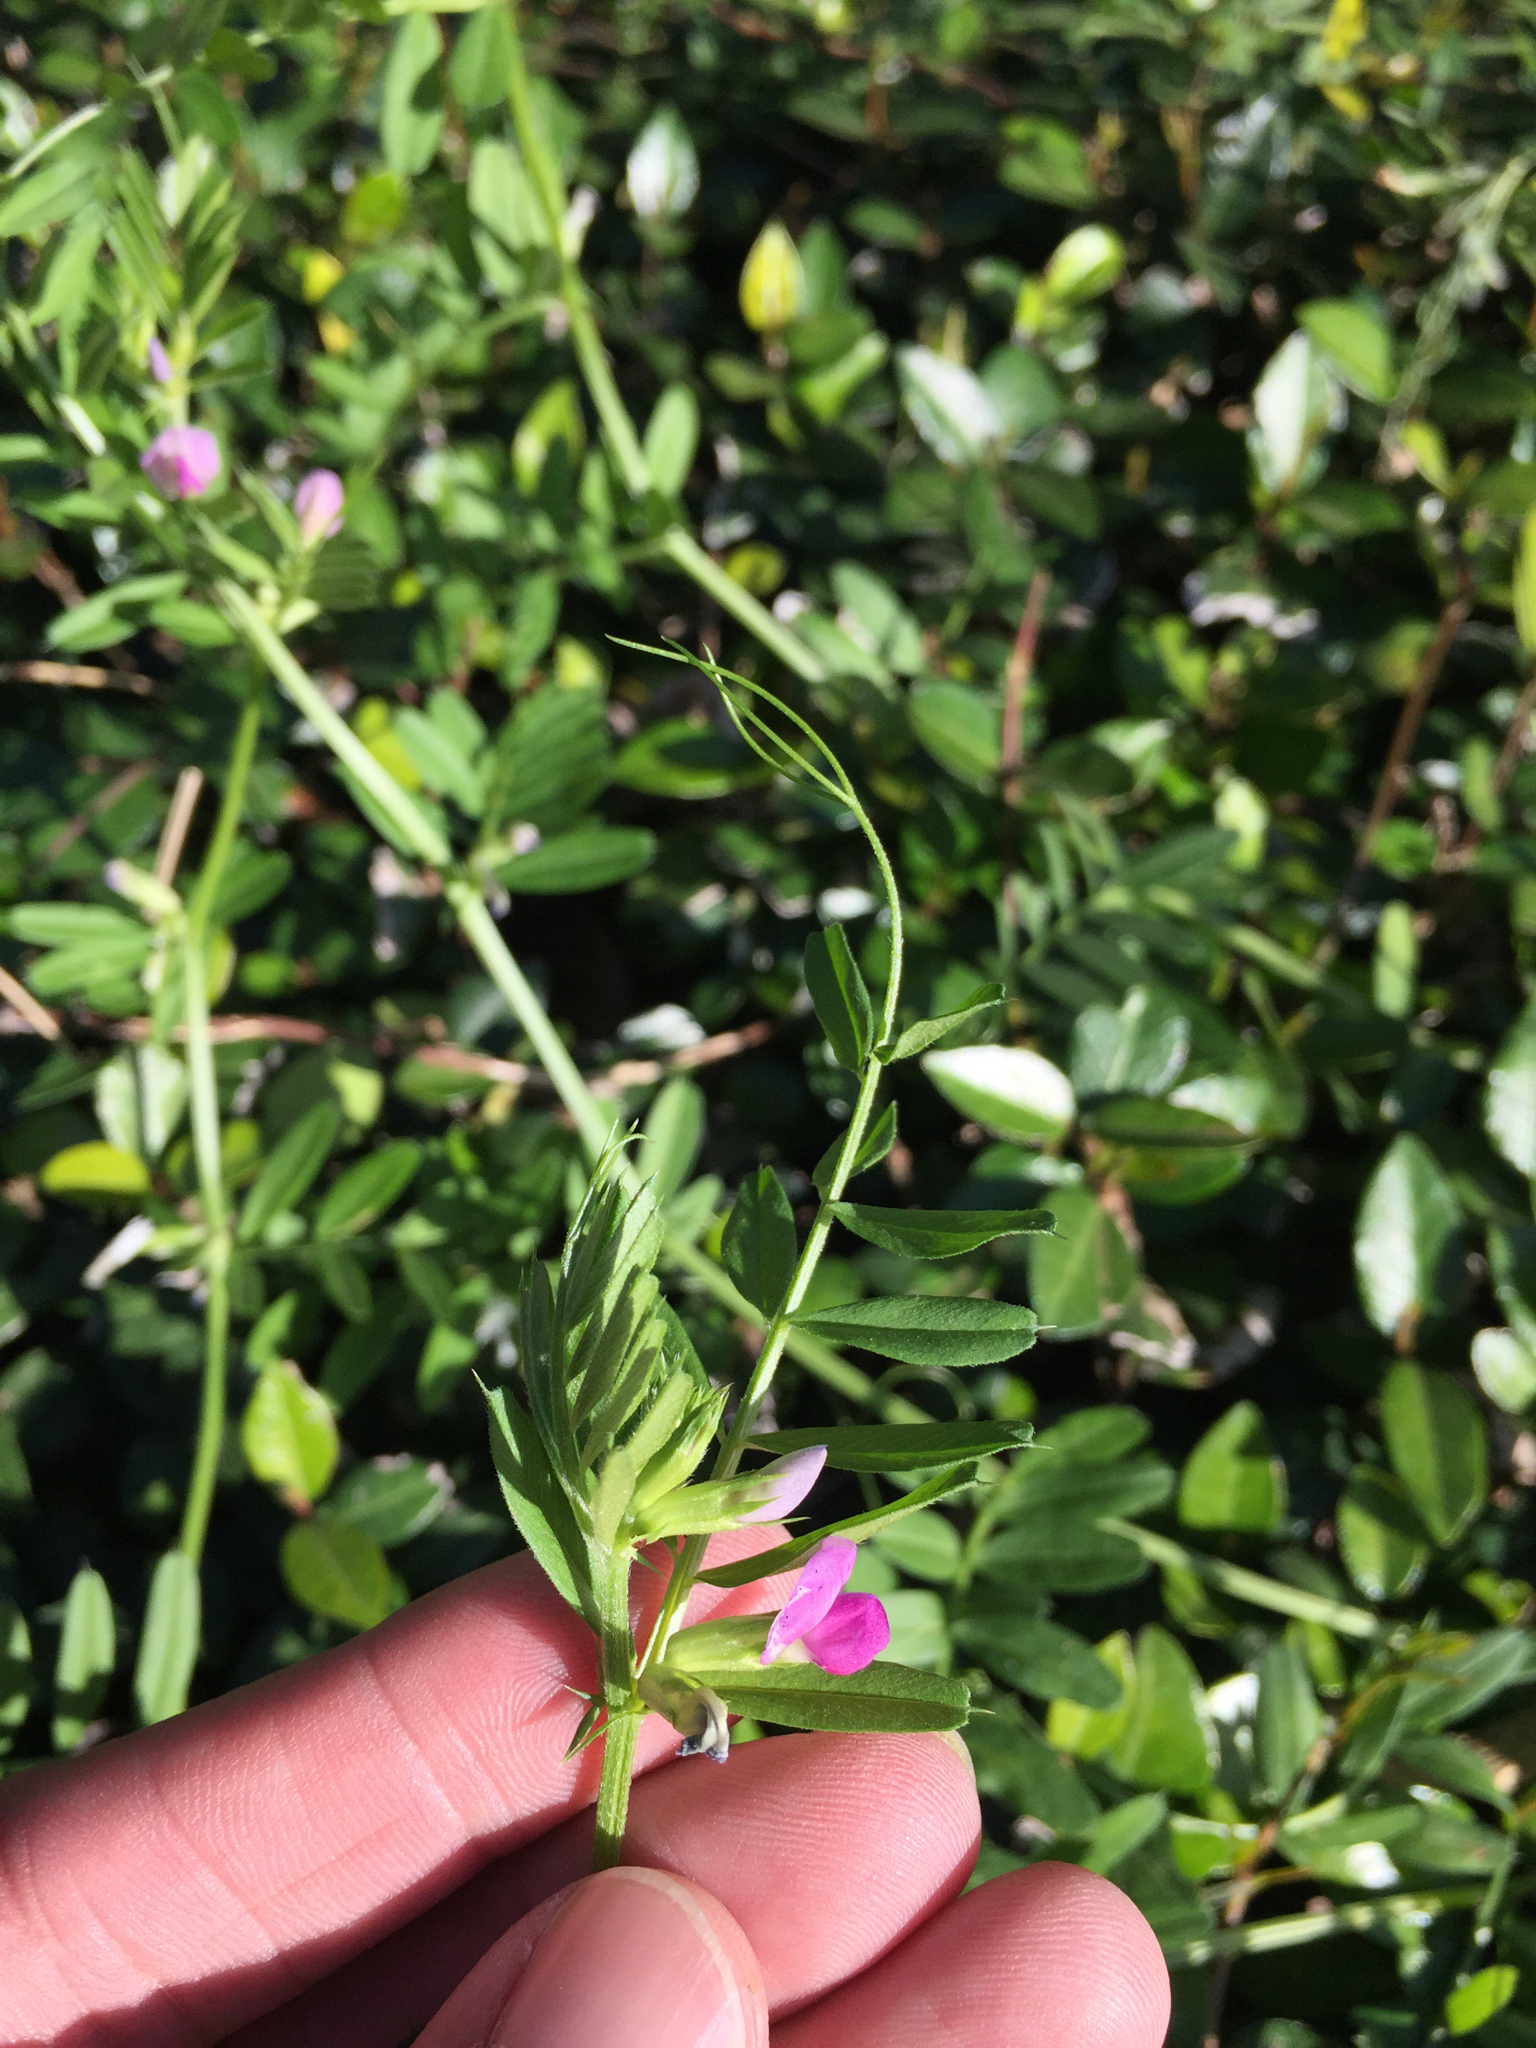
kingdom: Plantae
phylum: Tracheophyta
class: Magnoliopsida
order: Fabales
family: Fabaceae
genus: Vicia
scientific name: Vicia sativa
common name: Garden vetch
